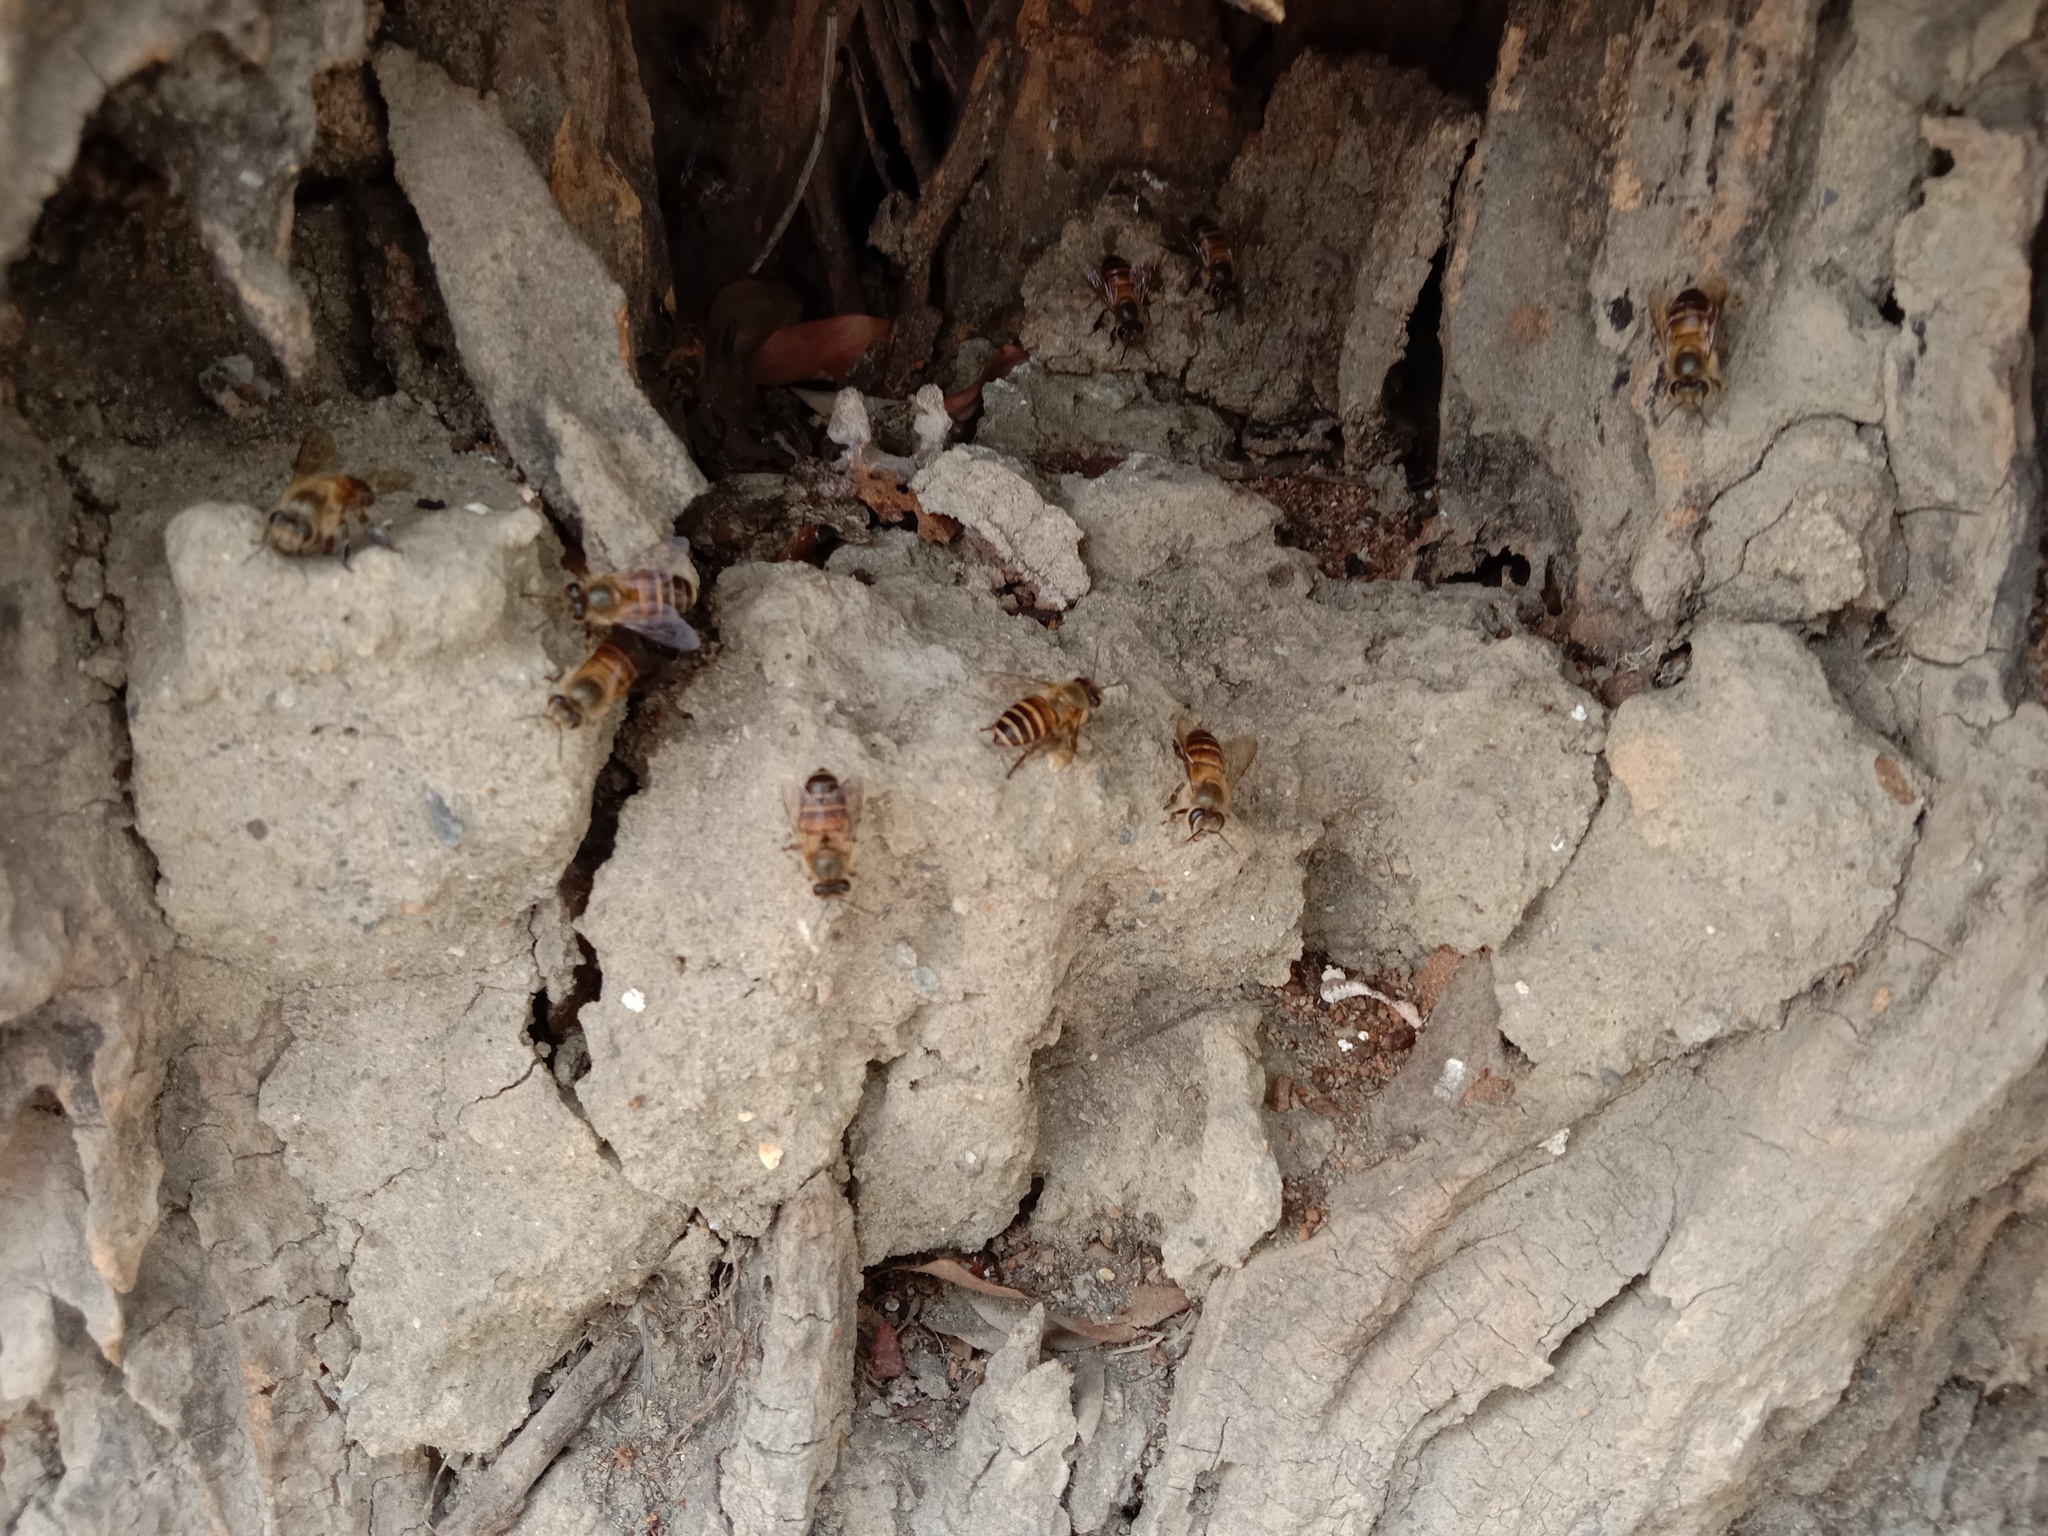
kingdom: Animalia
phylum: Arthropoda
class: Insecta
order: Hymenoptera
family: Apidae
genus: Apis
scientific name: Apis cerana
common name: Honey bee
